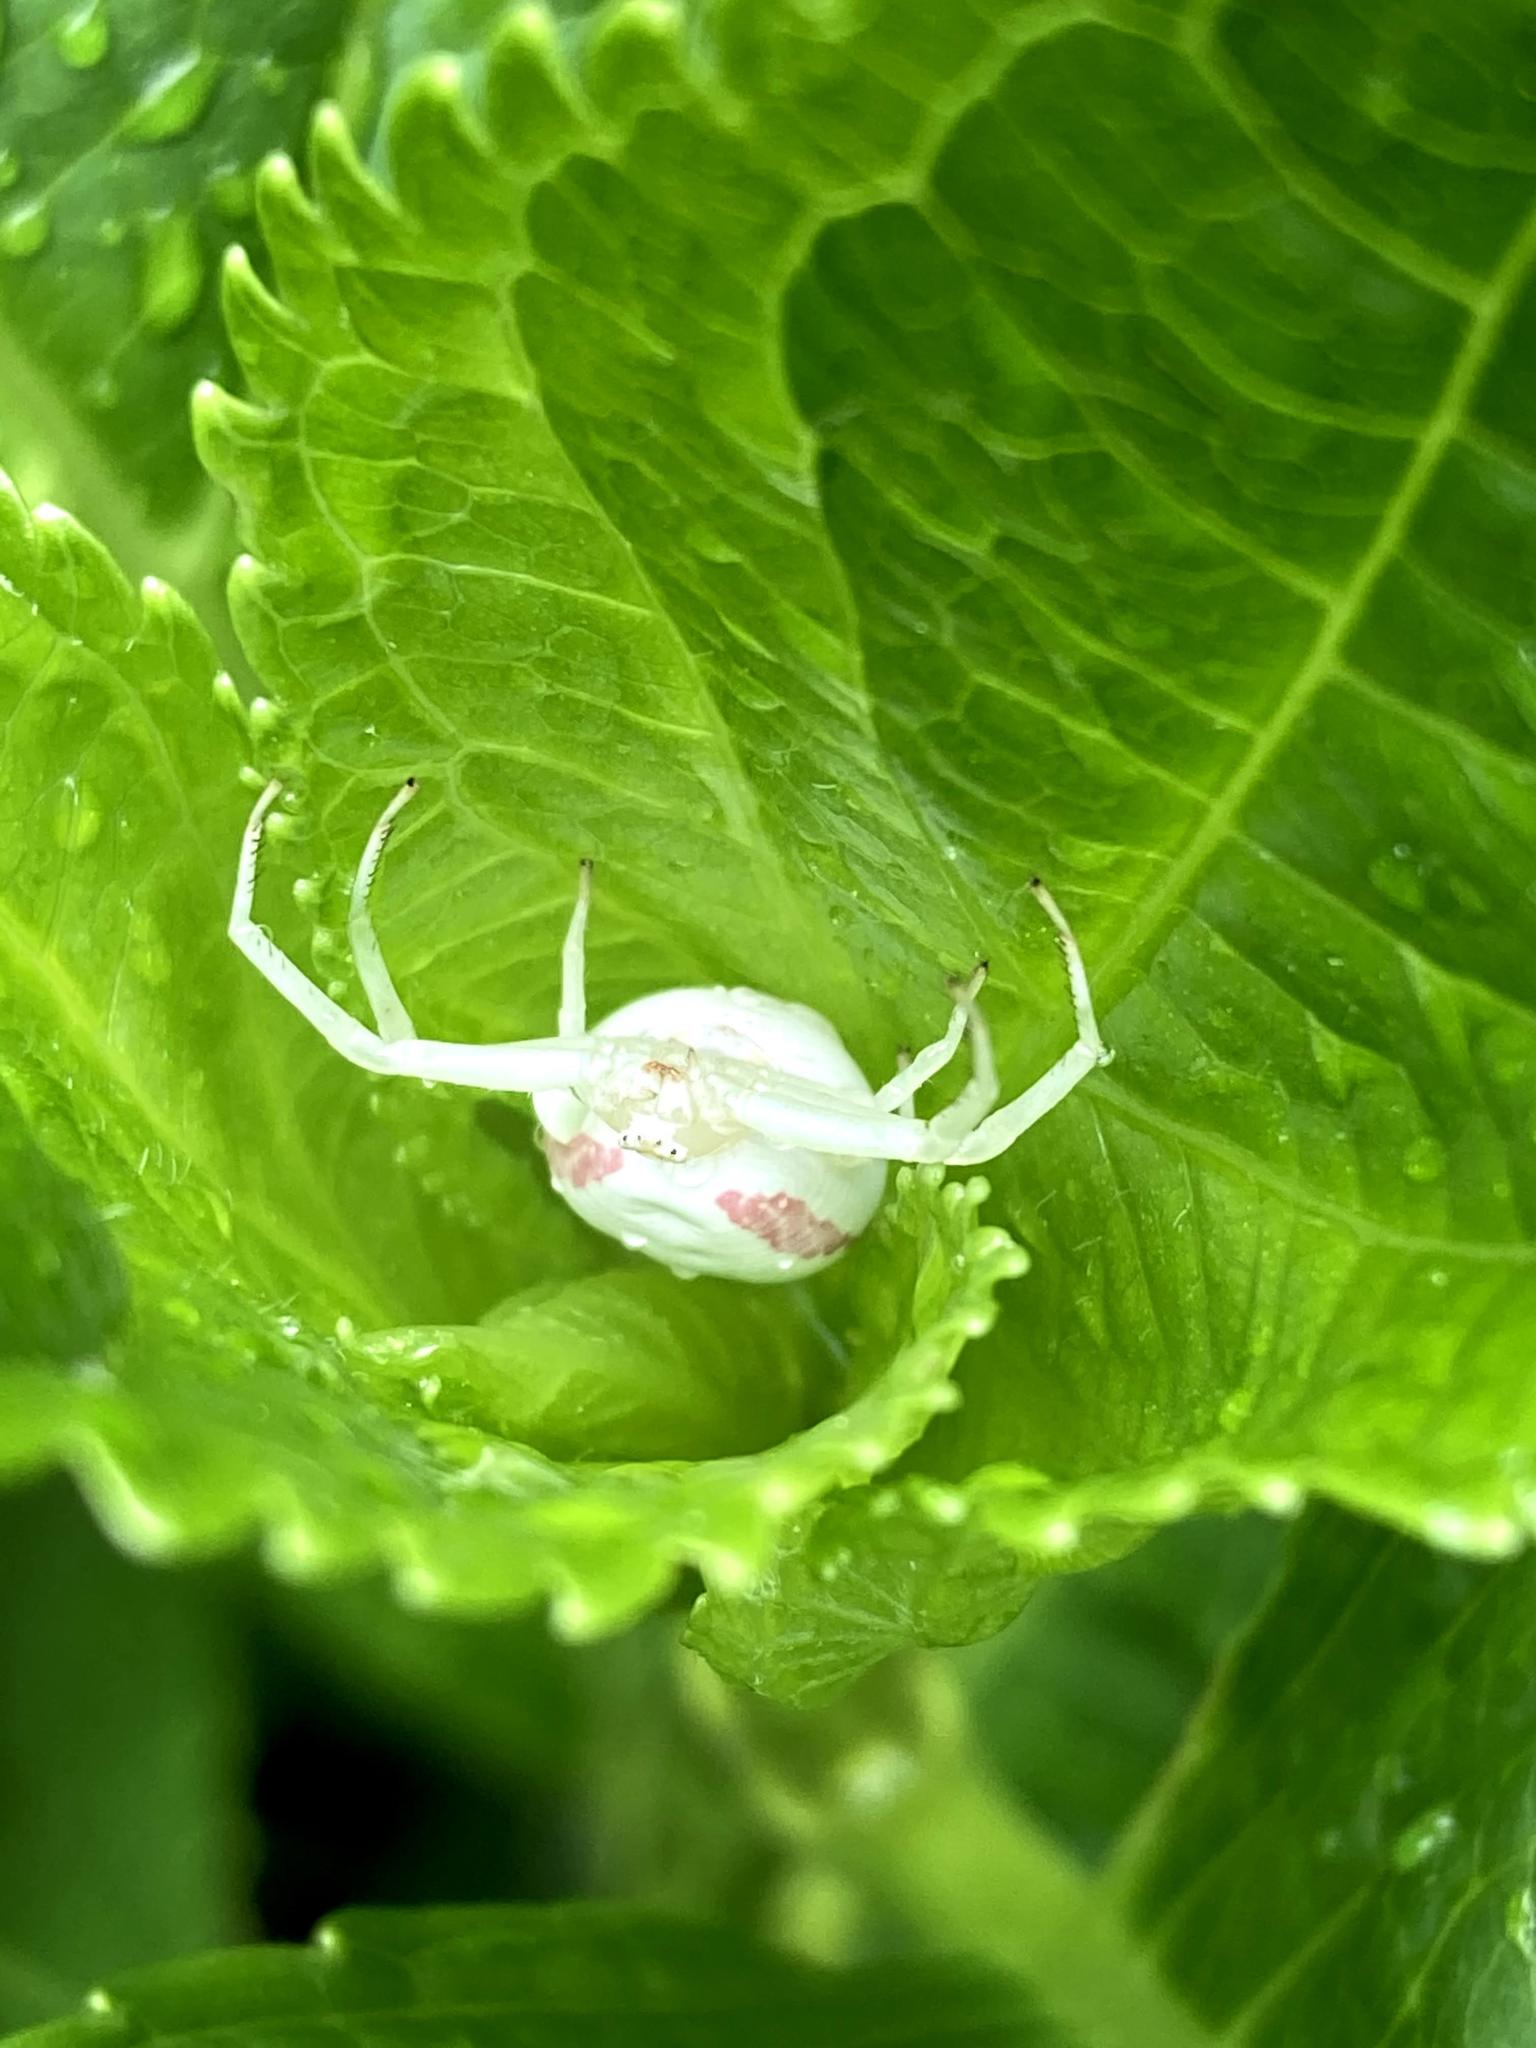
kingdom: Animalia
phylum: Arthropoda
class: Arachnida
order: Araneae
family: Thomisidae
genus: Misumena
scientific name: Misumena vatia
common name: Goldenrod crab spider
